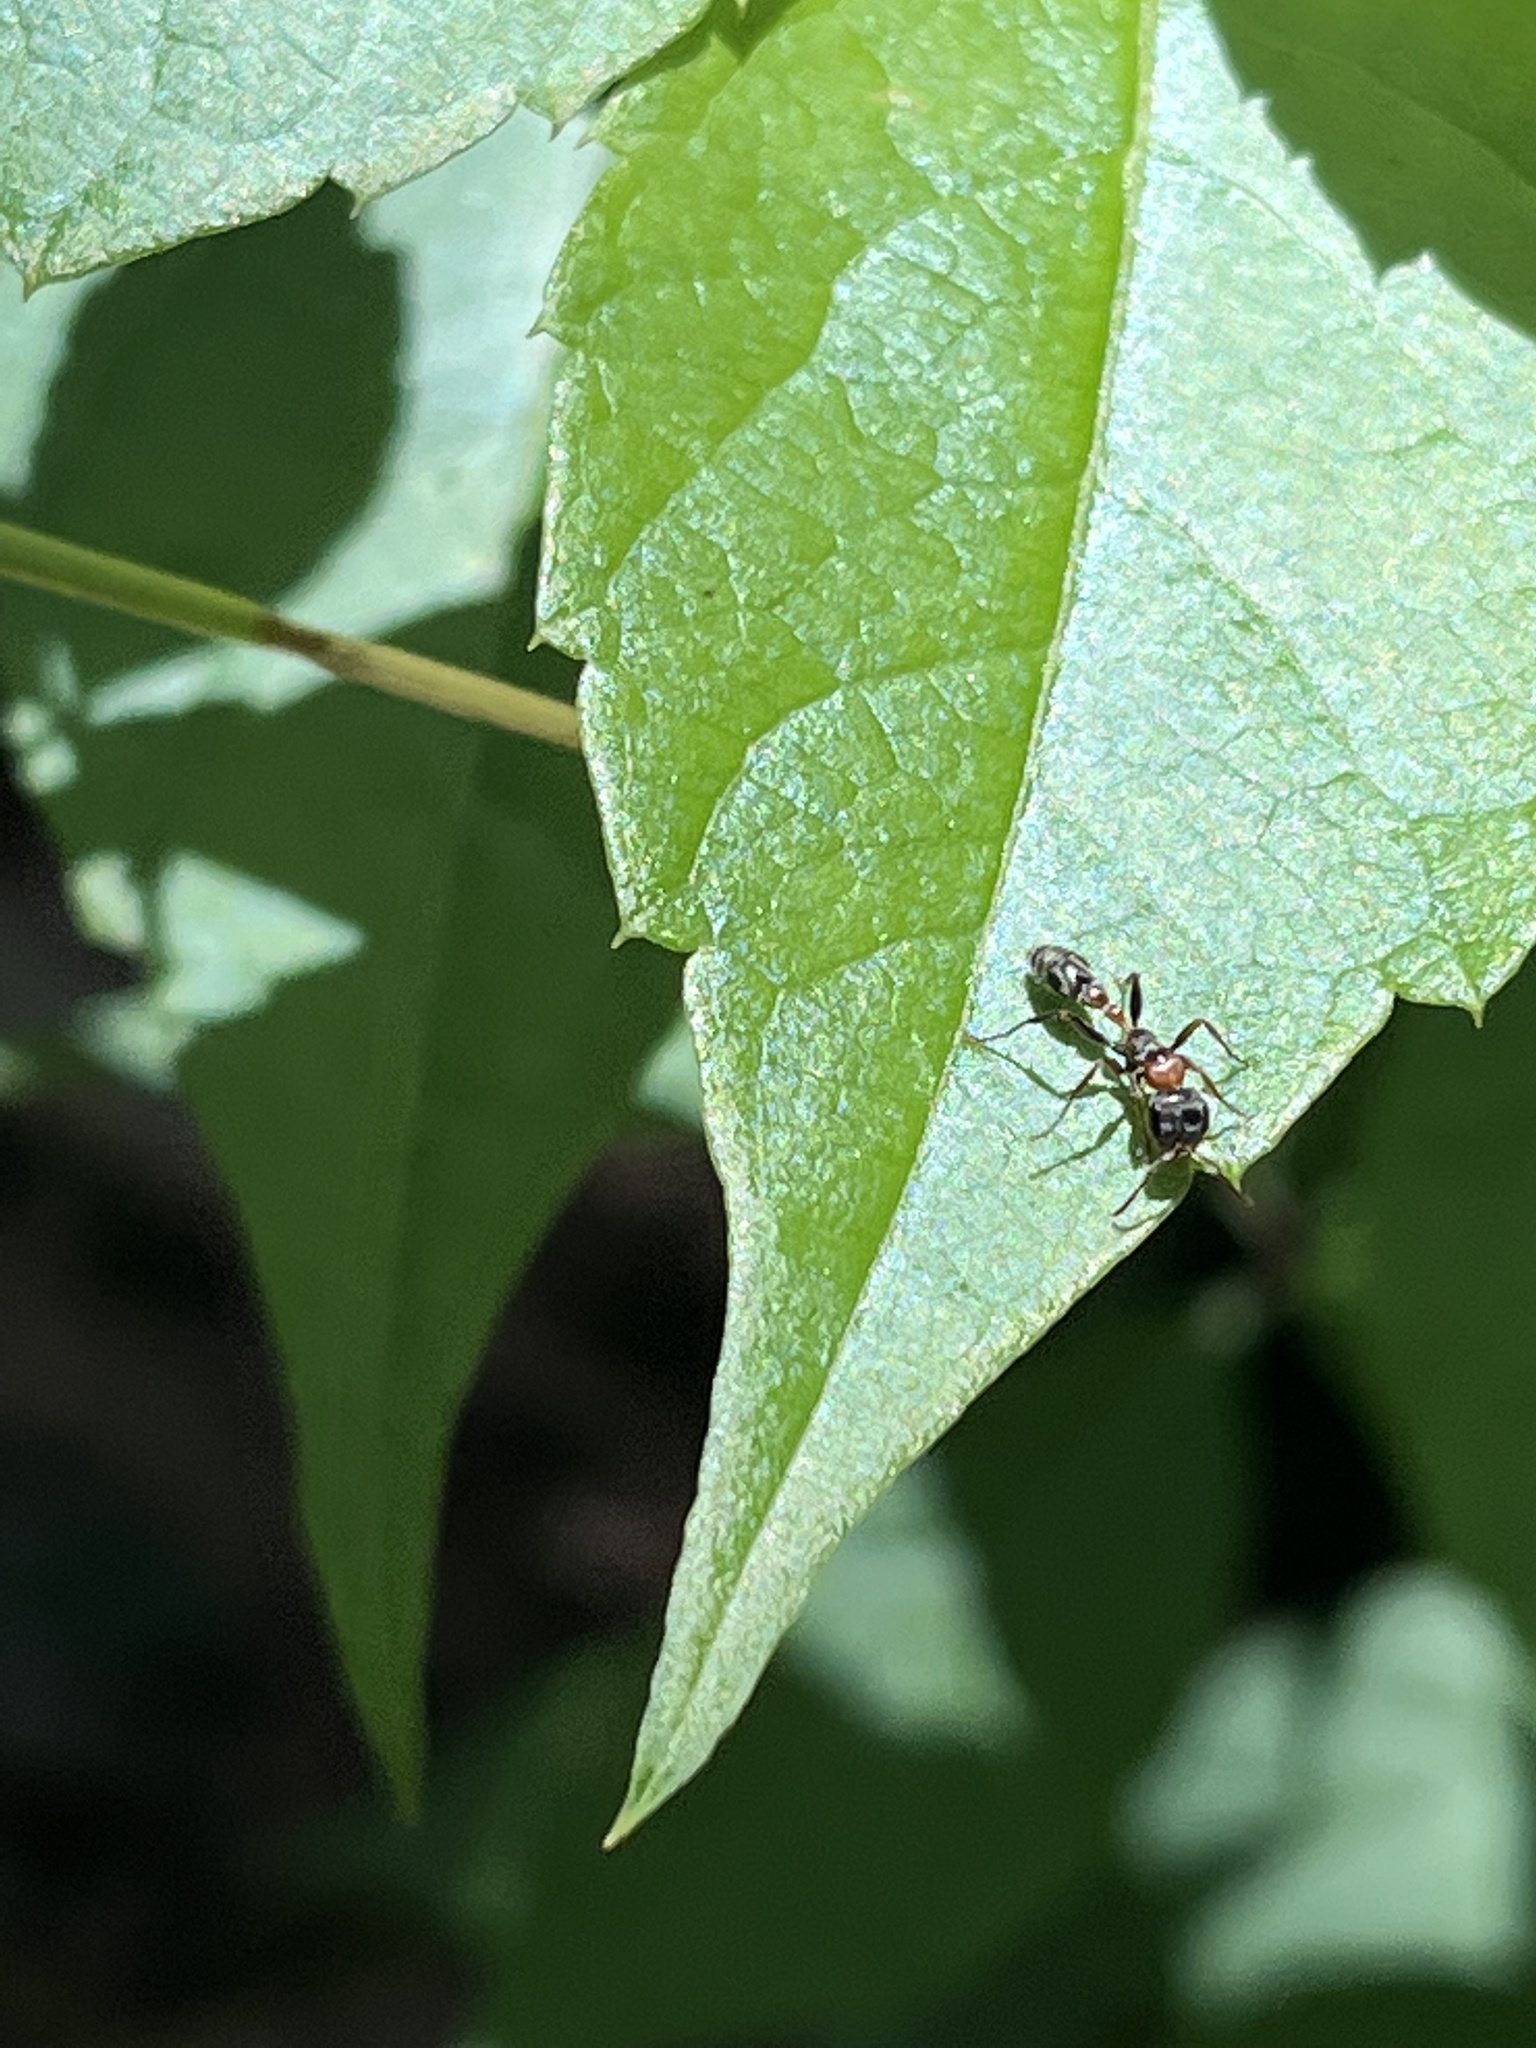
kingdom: Animalia
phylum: Arthropoda
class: Insecta
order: Hymenoptera
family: Formicidae
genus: Pseudomyrmex
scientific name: Pseudomyrmex gracilis
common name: Graceful twig ant
